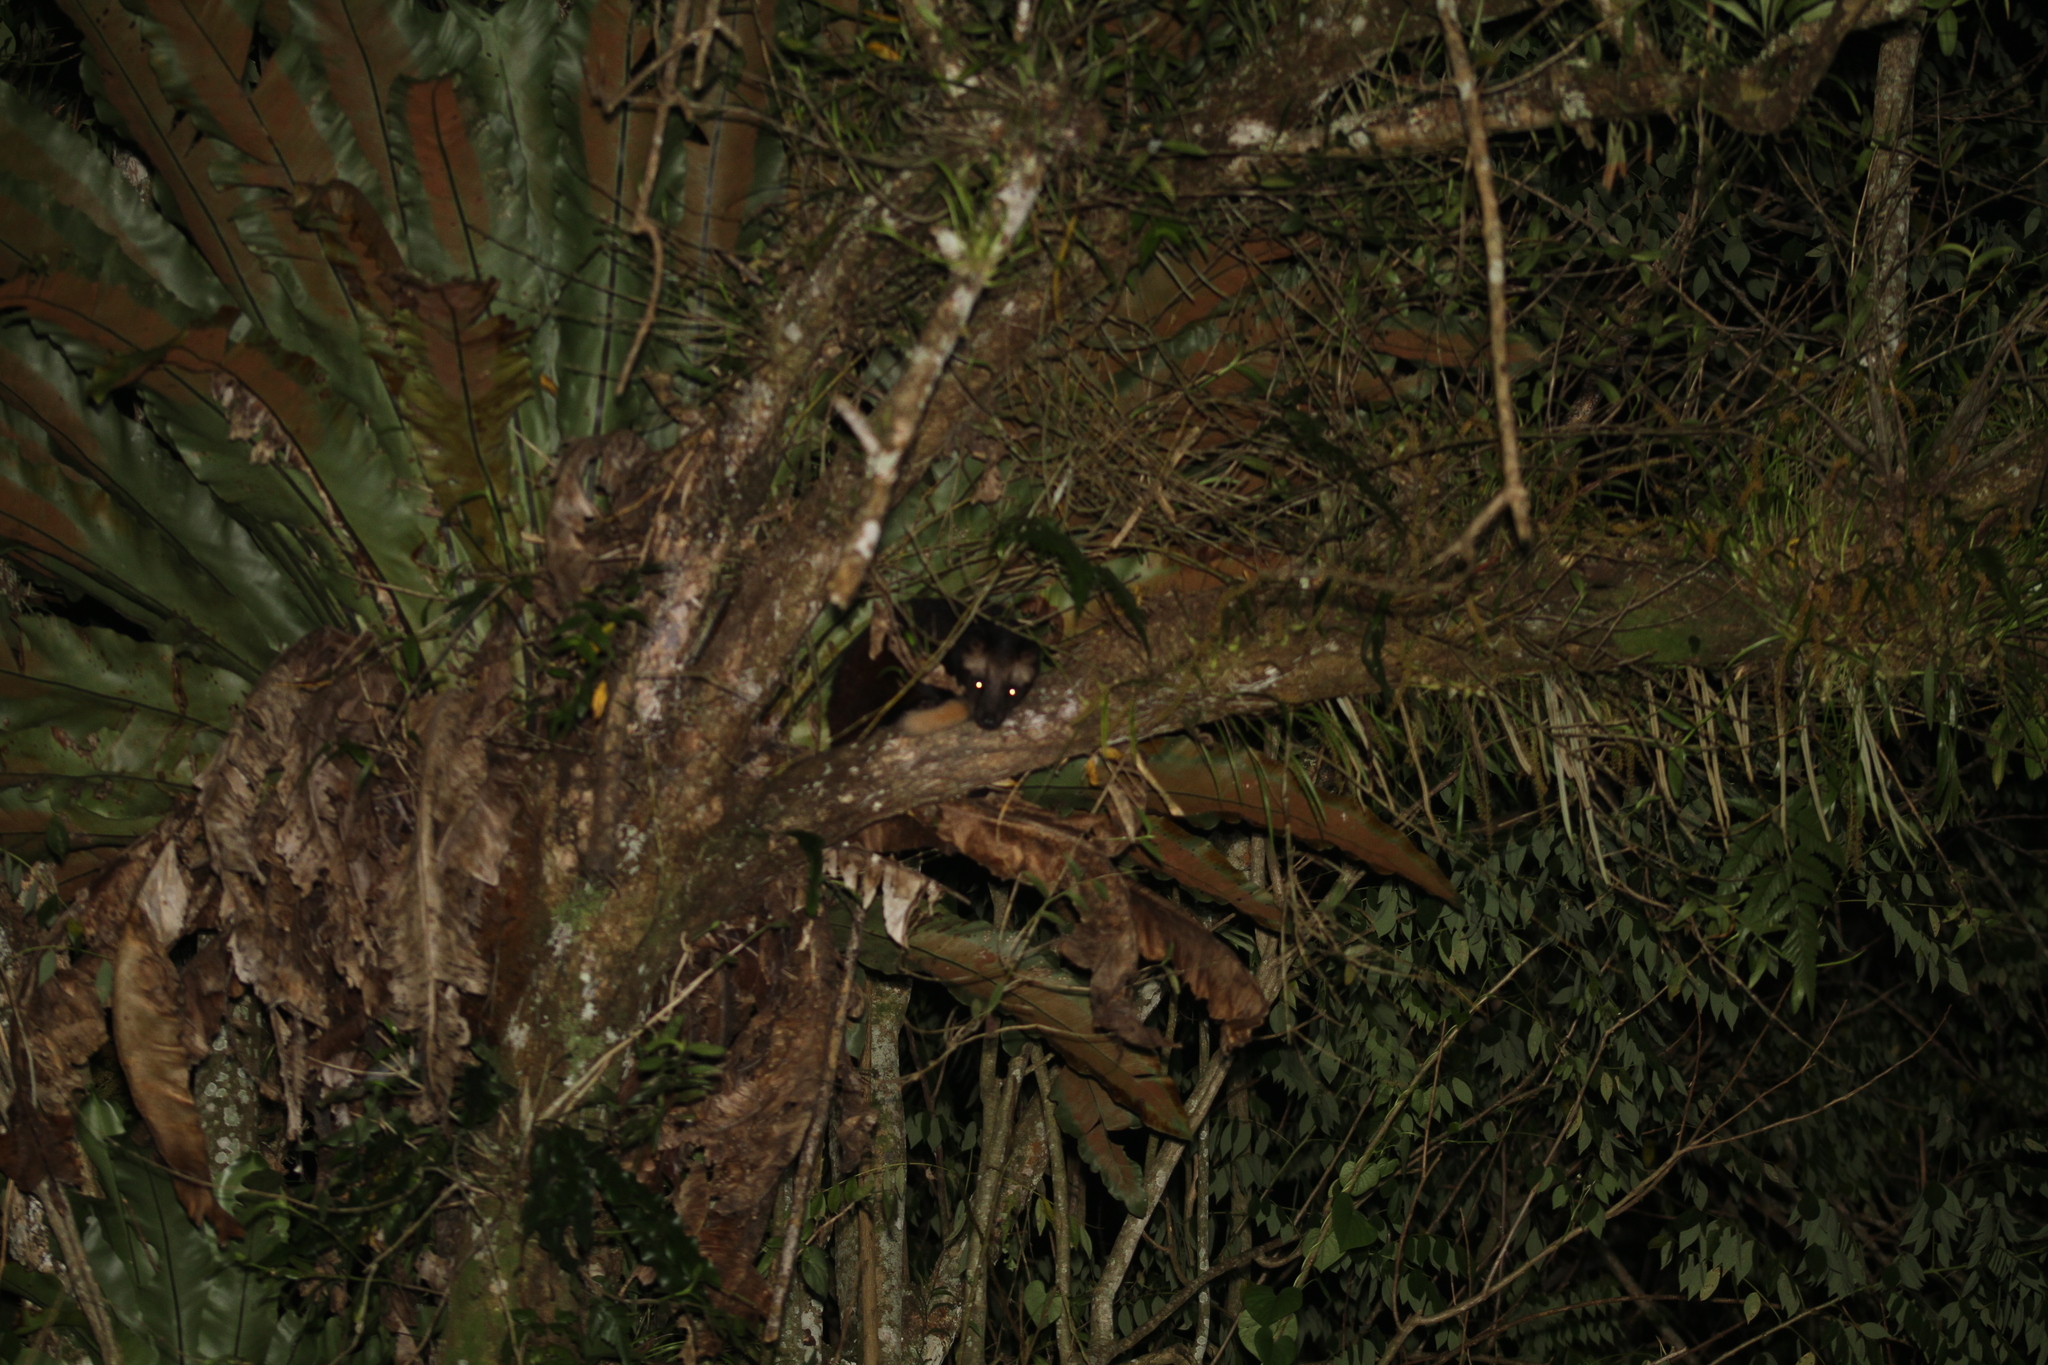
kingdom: Animalia
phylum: Chordata
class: Mammalia
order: Carnivora
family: Viverridae
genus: Paradoxurus
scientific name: Paradoxurus hermaphroditus
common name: Common palm civet
